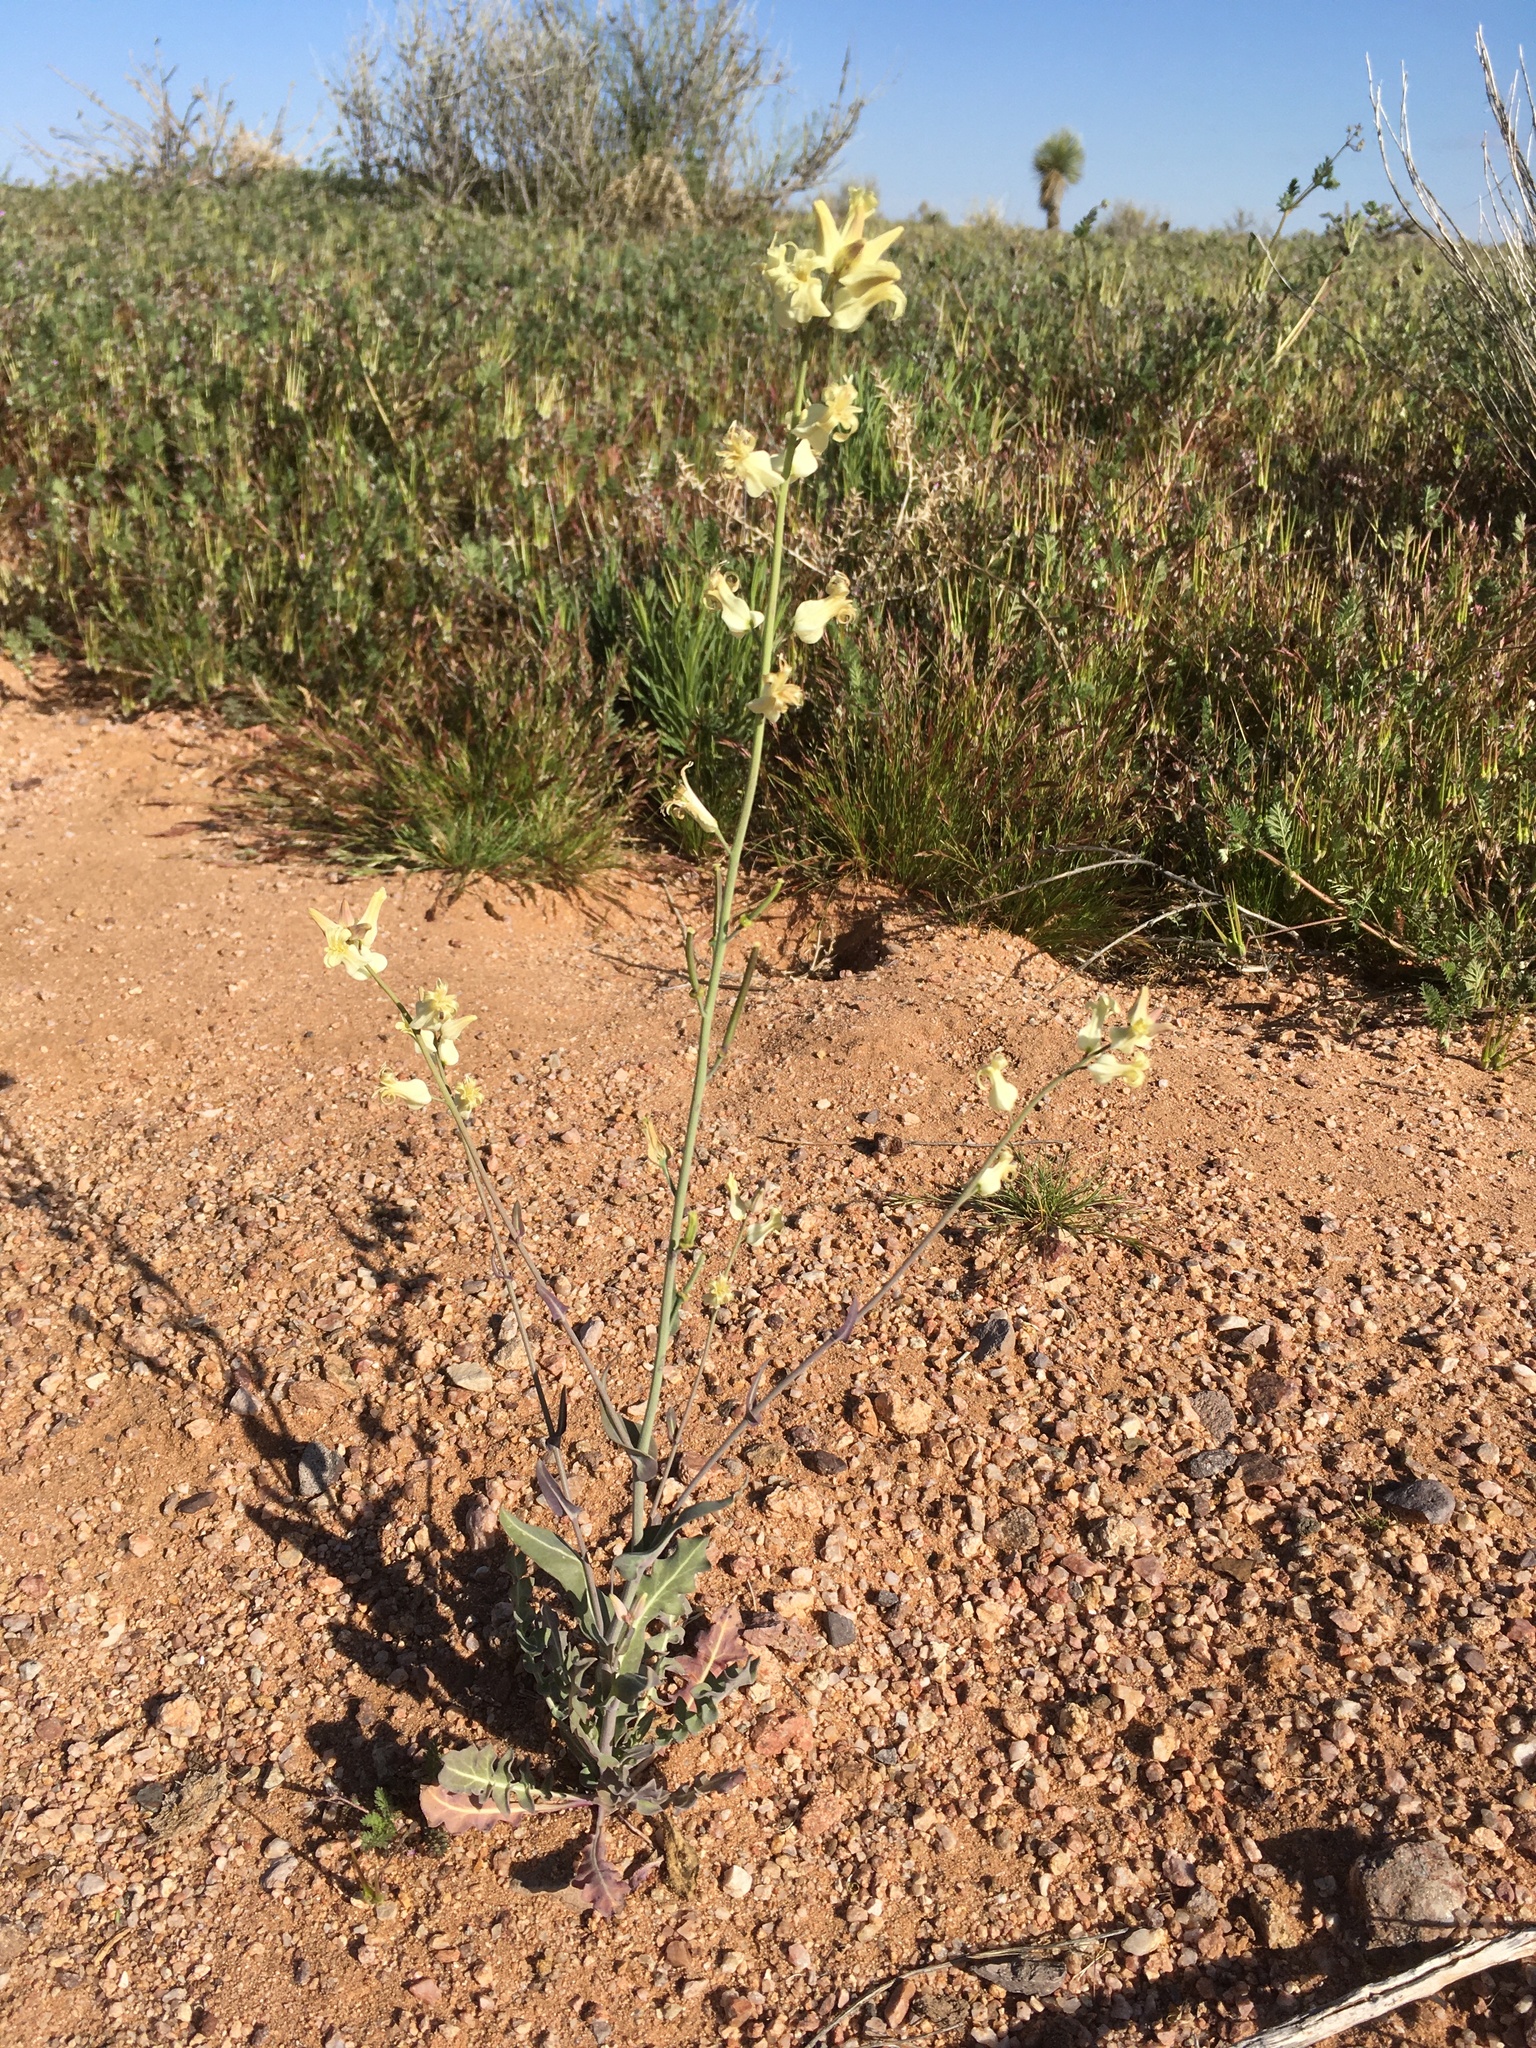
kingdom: Plantae
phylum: Tracheophyta
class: Magnoliopsida
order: Brassicales
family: Brassicaceae
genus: Streptanthus
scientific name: Streptanthus carinatus
